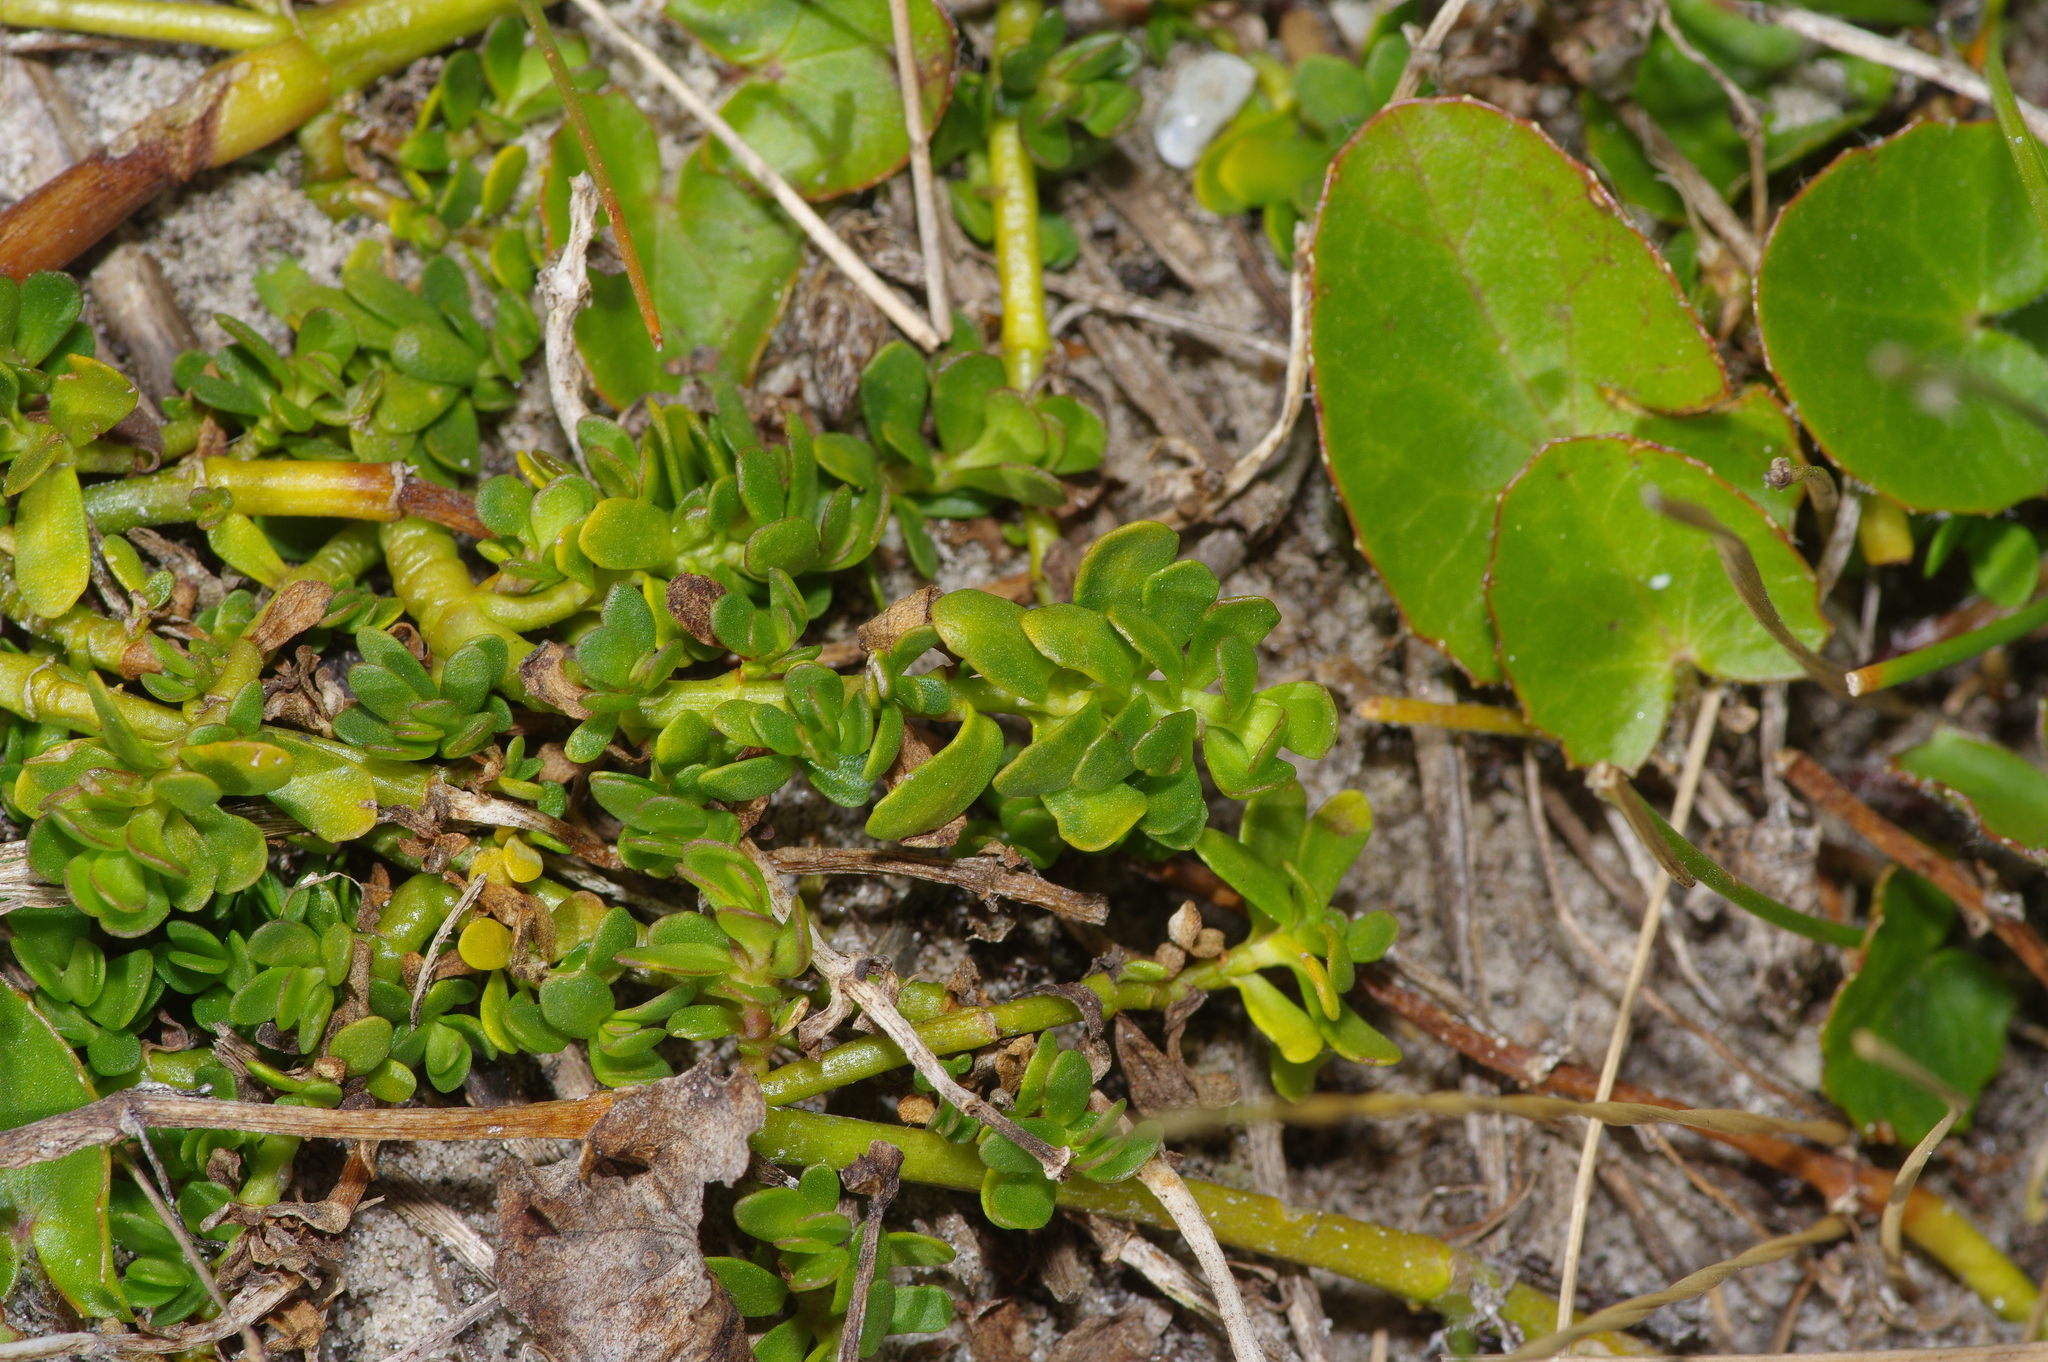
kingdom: Plantae
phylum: Tracheophyta
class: Magnoliopsida
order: Lamiales
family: Plantaginaceae
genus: Bacopa
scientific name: Bacopa monnieri
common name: Indian-pennywort
